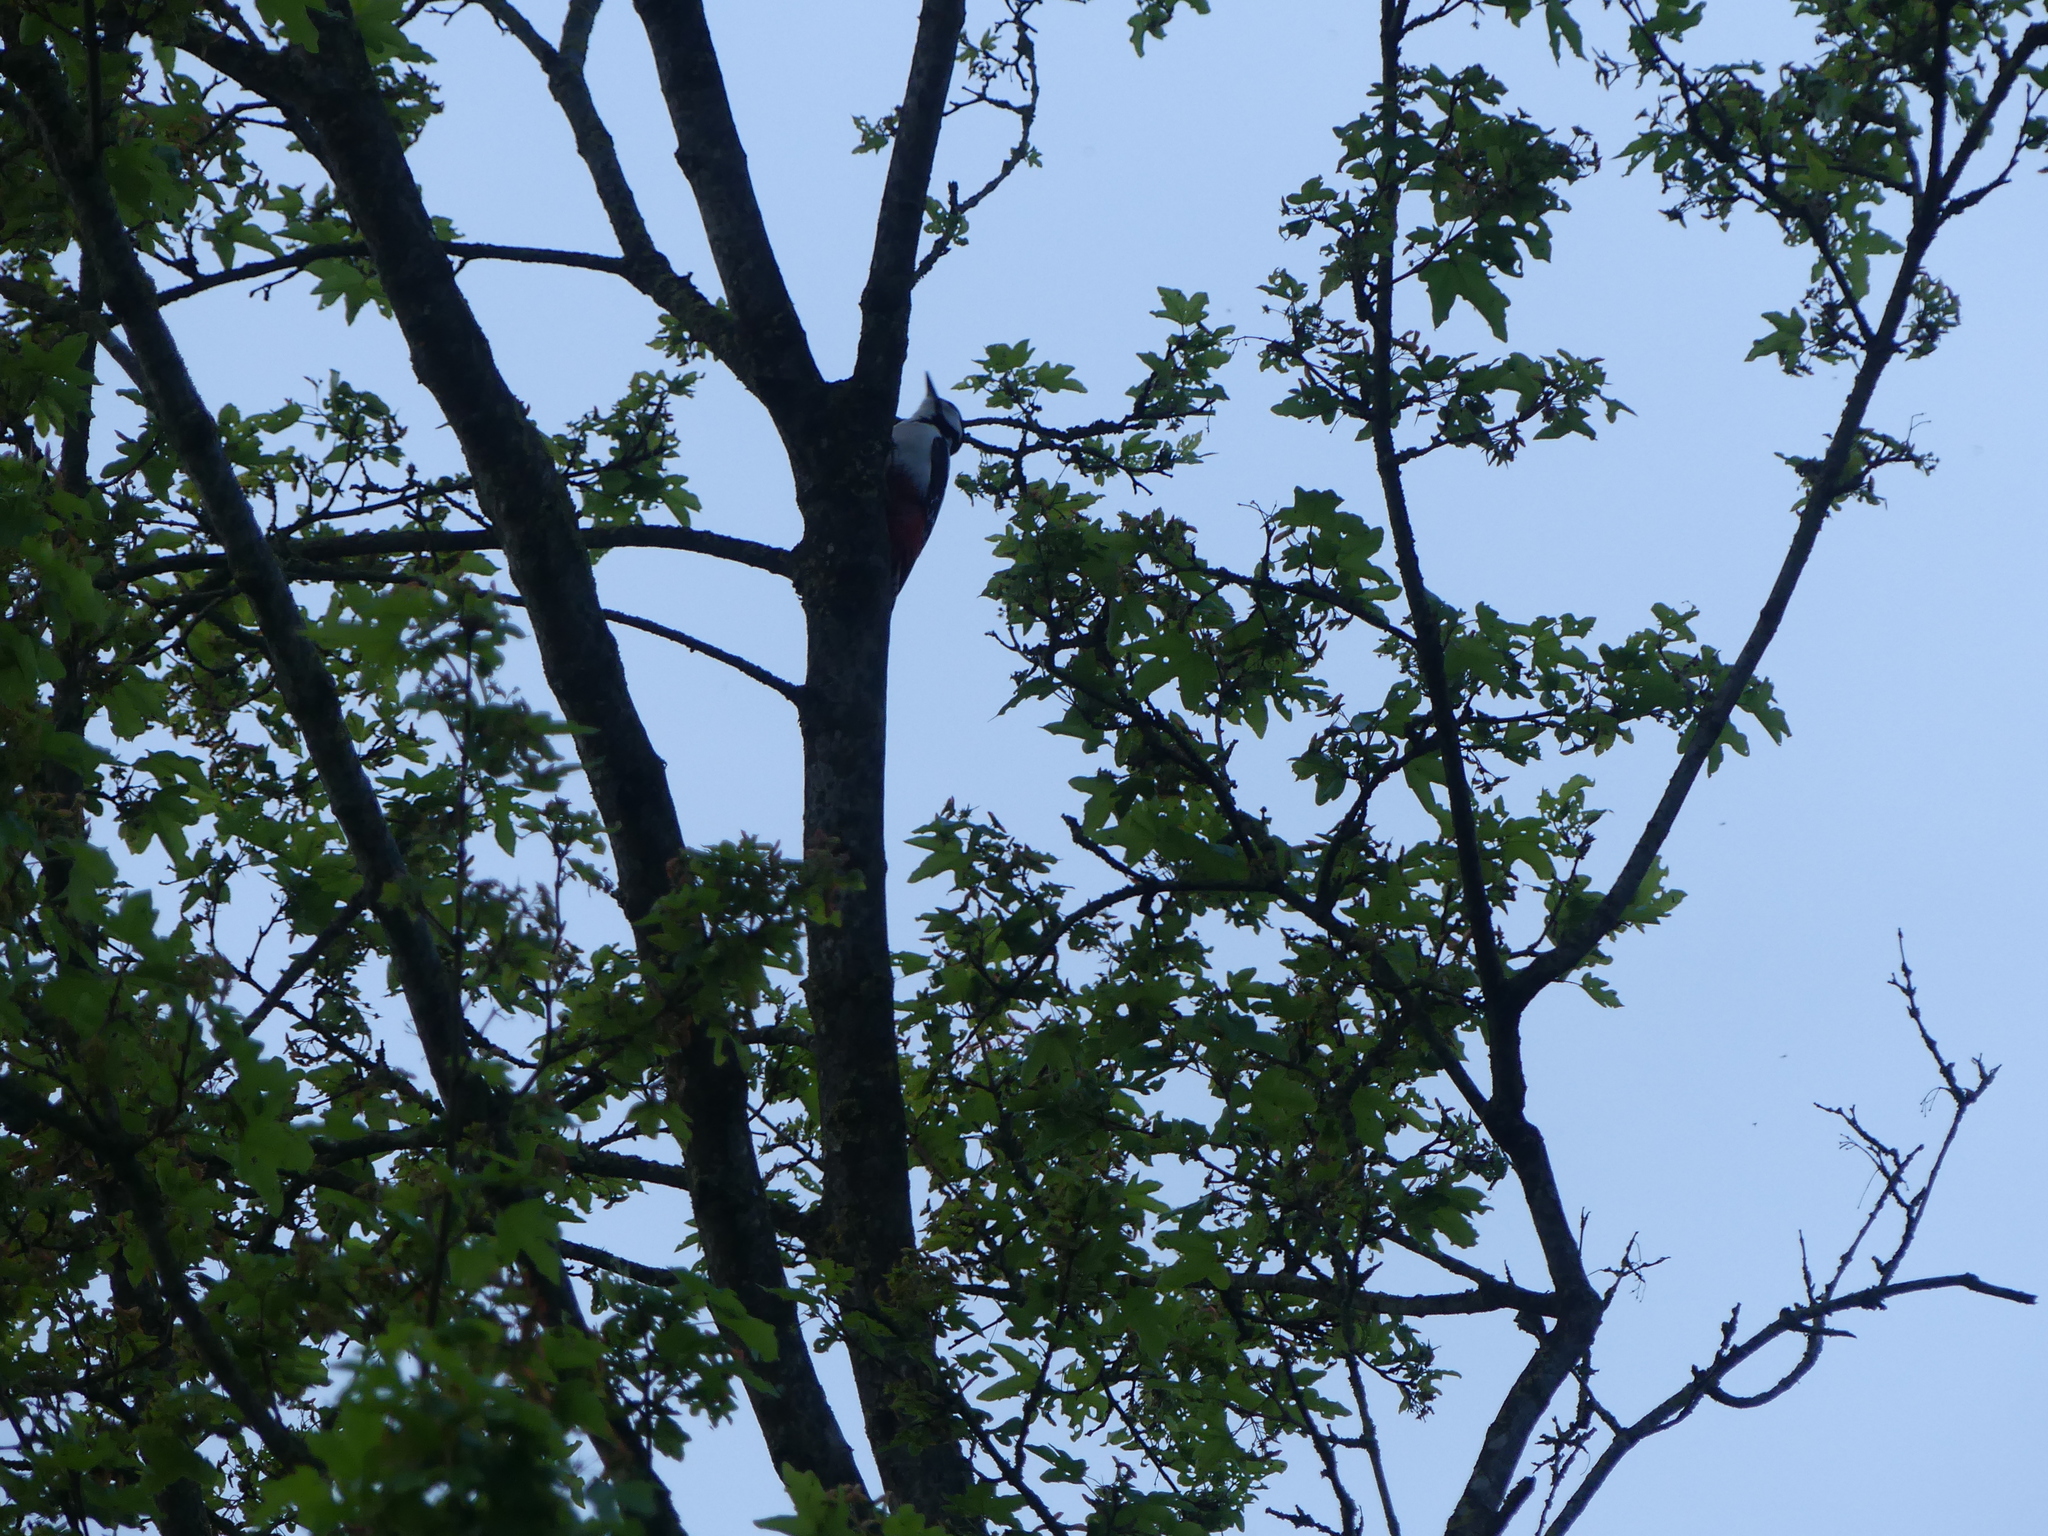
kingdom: Animalia
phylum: Chordata
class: Aves
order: Piciformes
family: Picidae
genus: Dendrocopos
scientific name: Dendrocopos major
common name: Great spotted woodpecker
